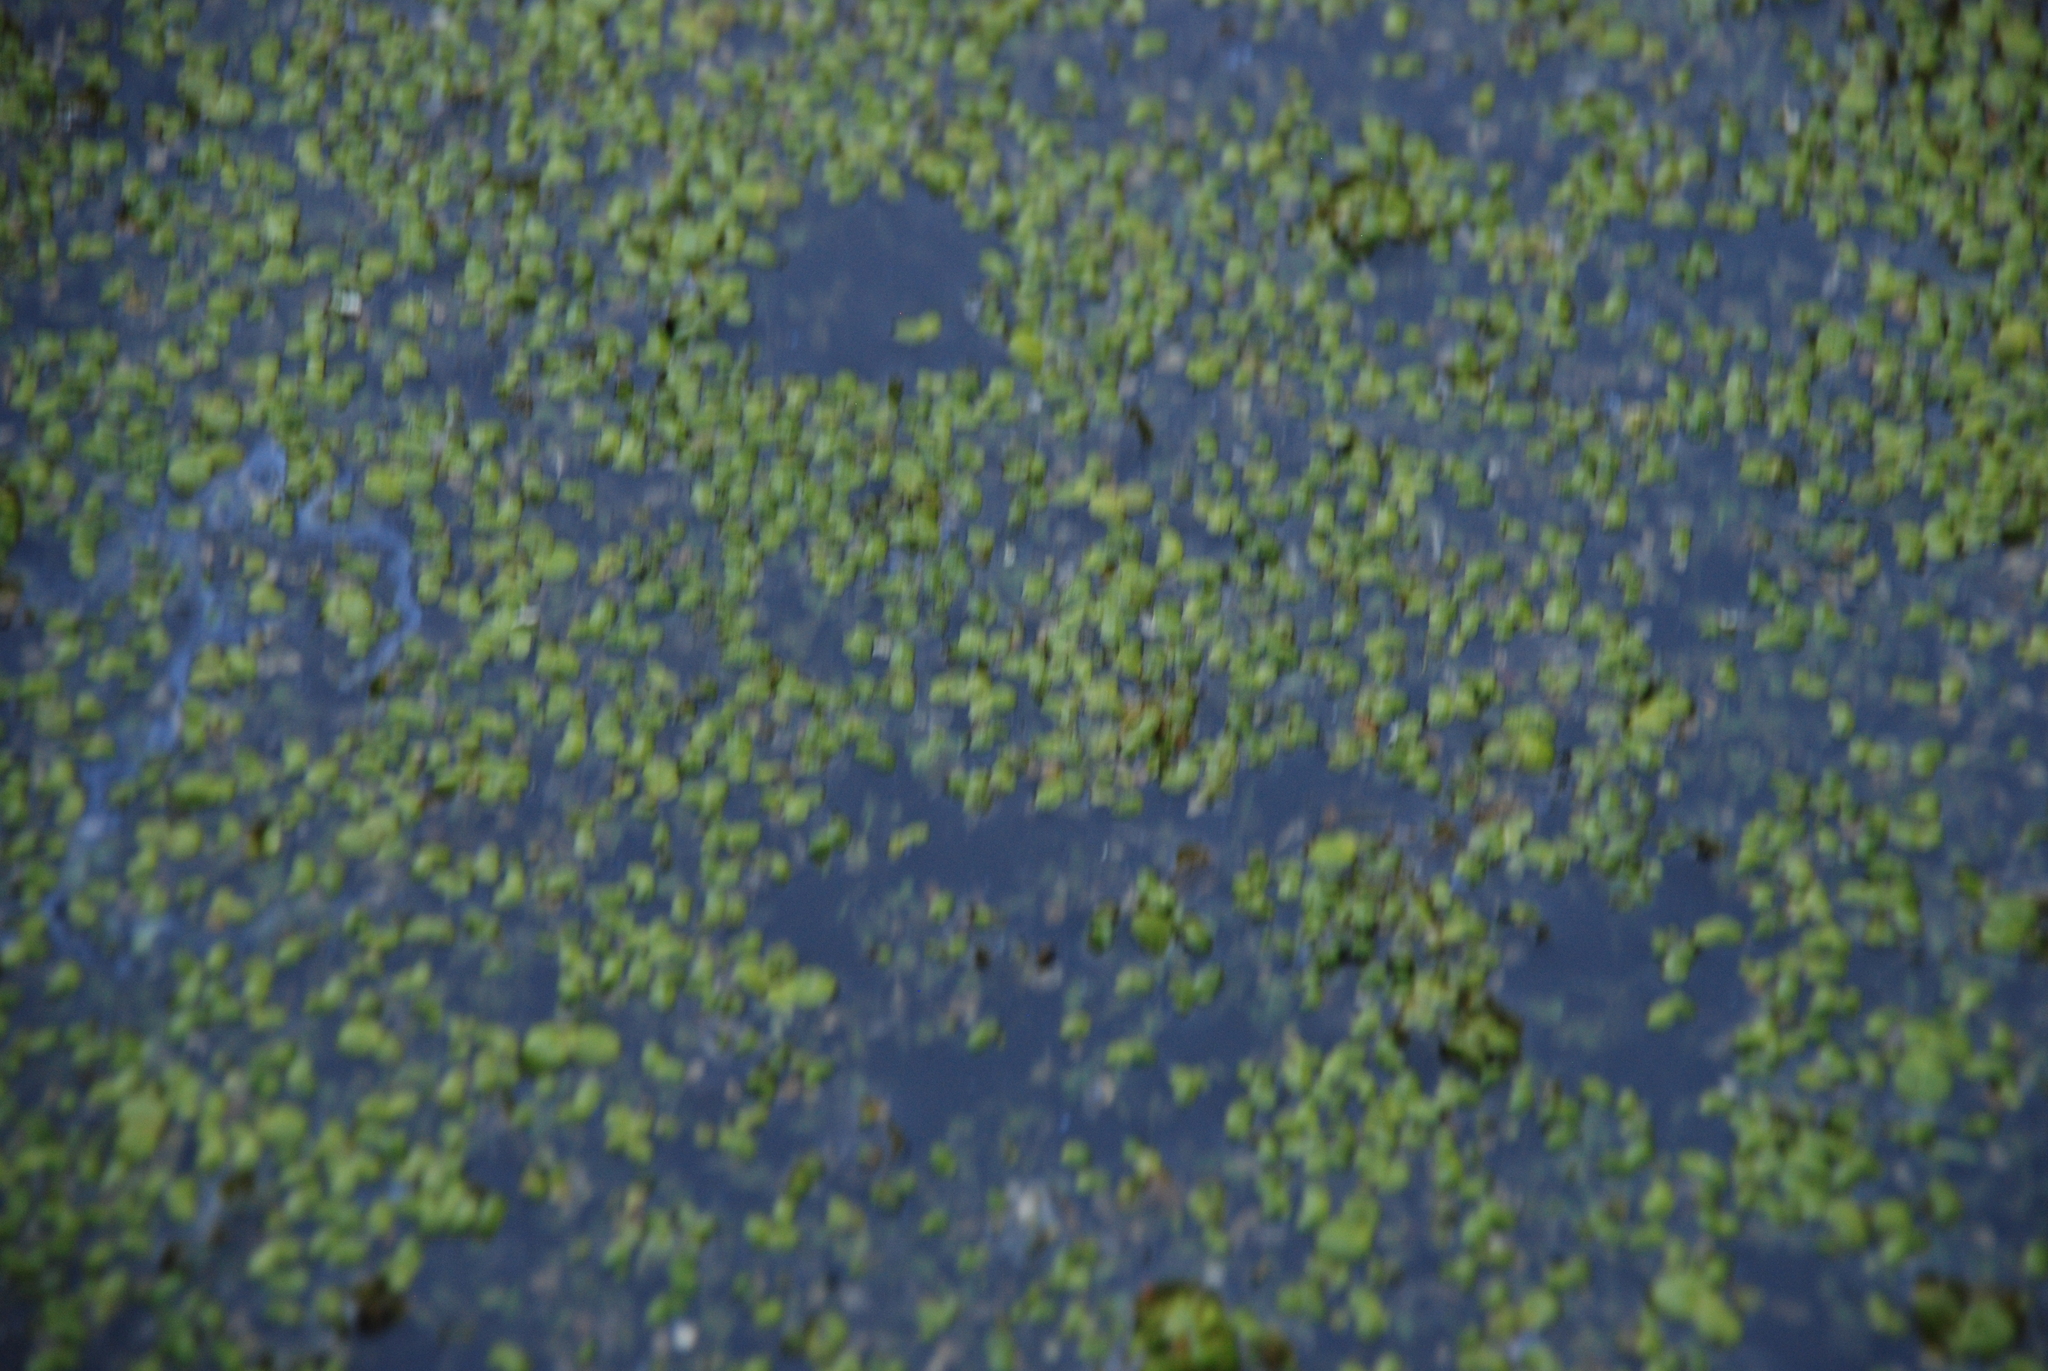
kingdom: Plantae
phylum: Tracheophyta
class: Liliopsida
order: Alismatales
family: Araceae
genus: Spirodela
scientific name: Spirodela polyrhiza
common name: Great duckweed
